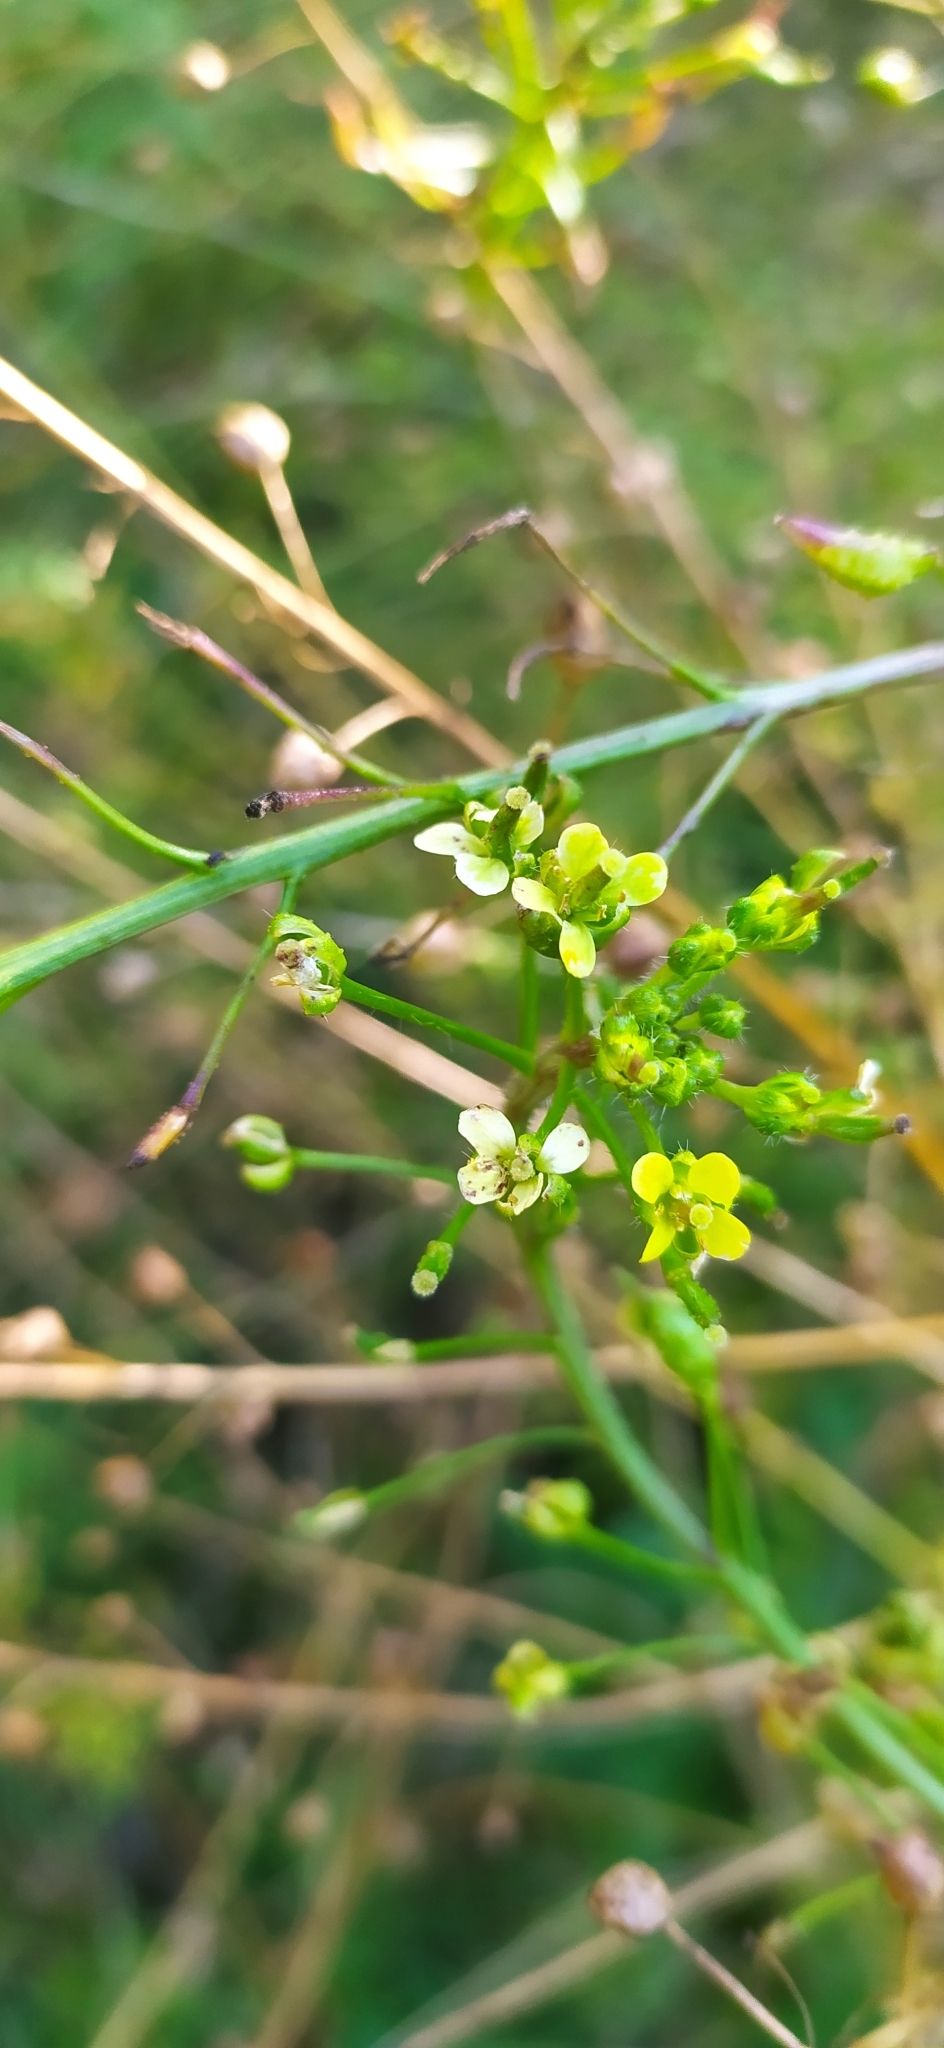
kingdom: Plantae
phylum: Tracheophyta
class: Magnoliopsida
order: Brassicales
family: Brassicaceae
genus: Bunias
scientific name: Bunias orientalis
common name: Warty-cabbage
